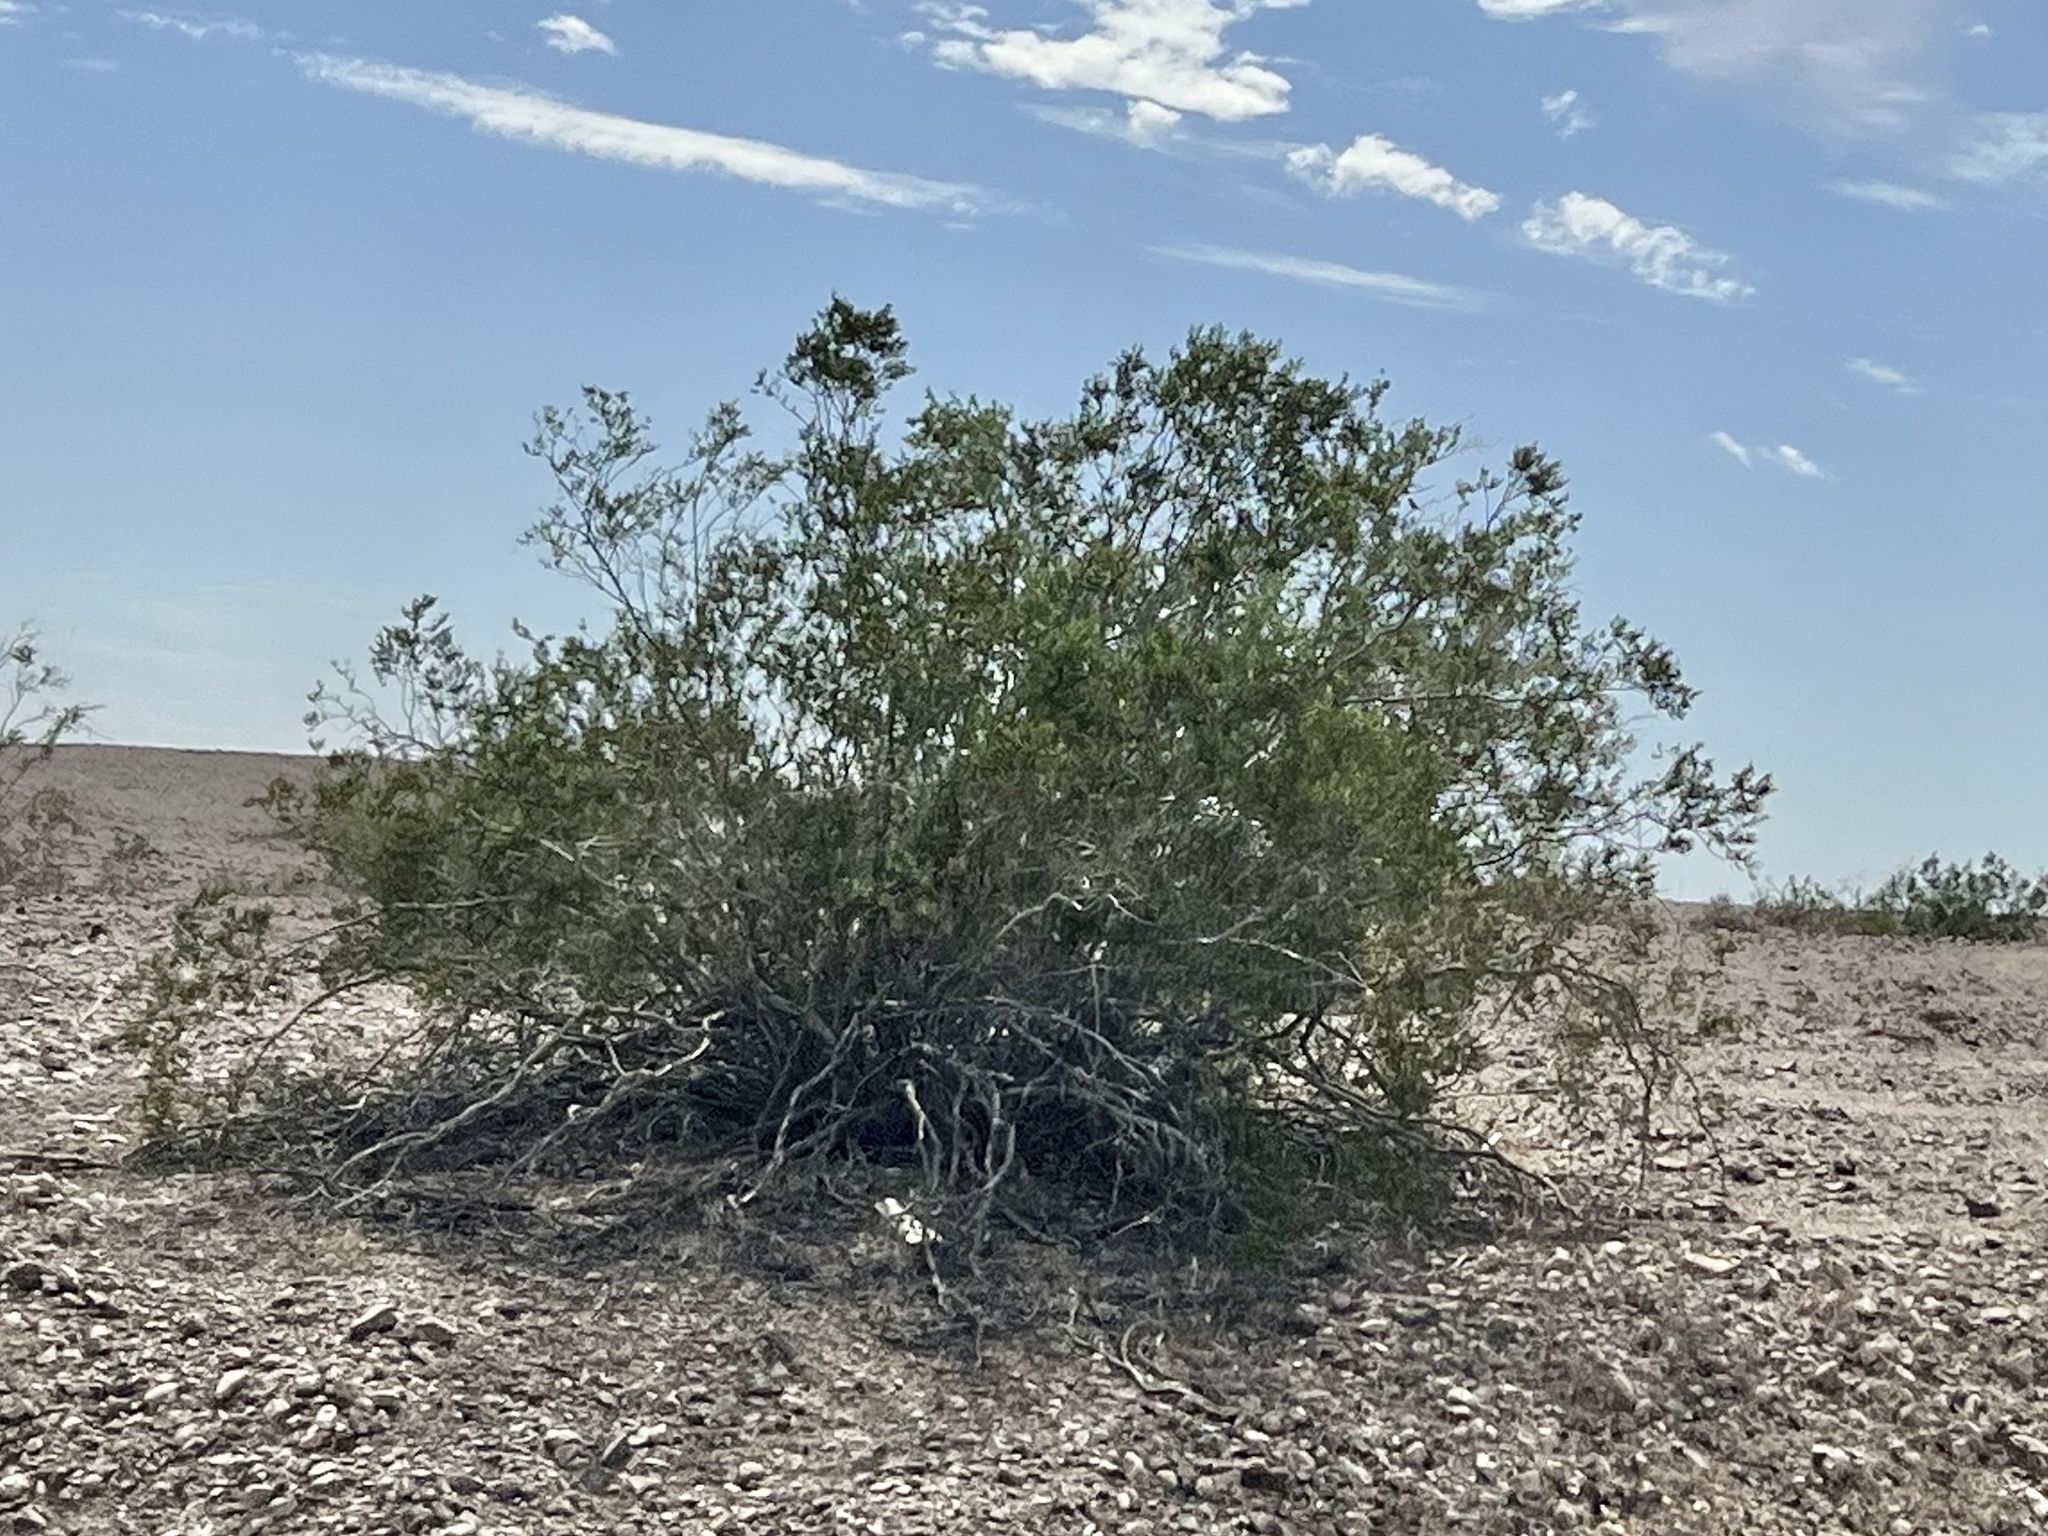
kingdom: Plantae
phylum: Tracheophyta
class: Magnoliopsida
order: Zygophyllales
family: Zygophyllaceae
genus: Larrea
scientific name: Larrea tridentata
